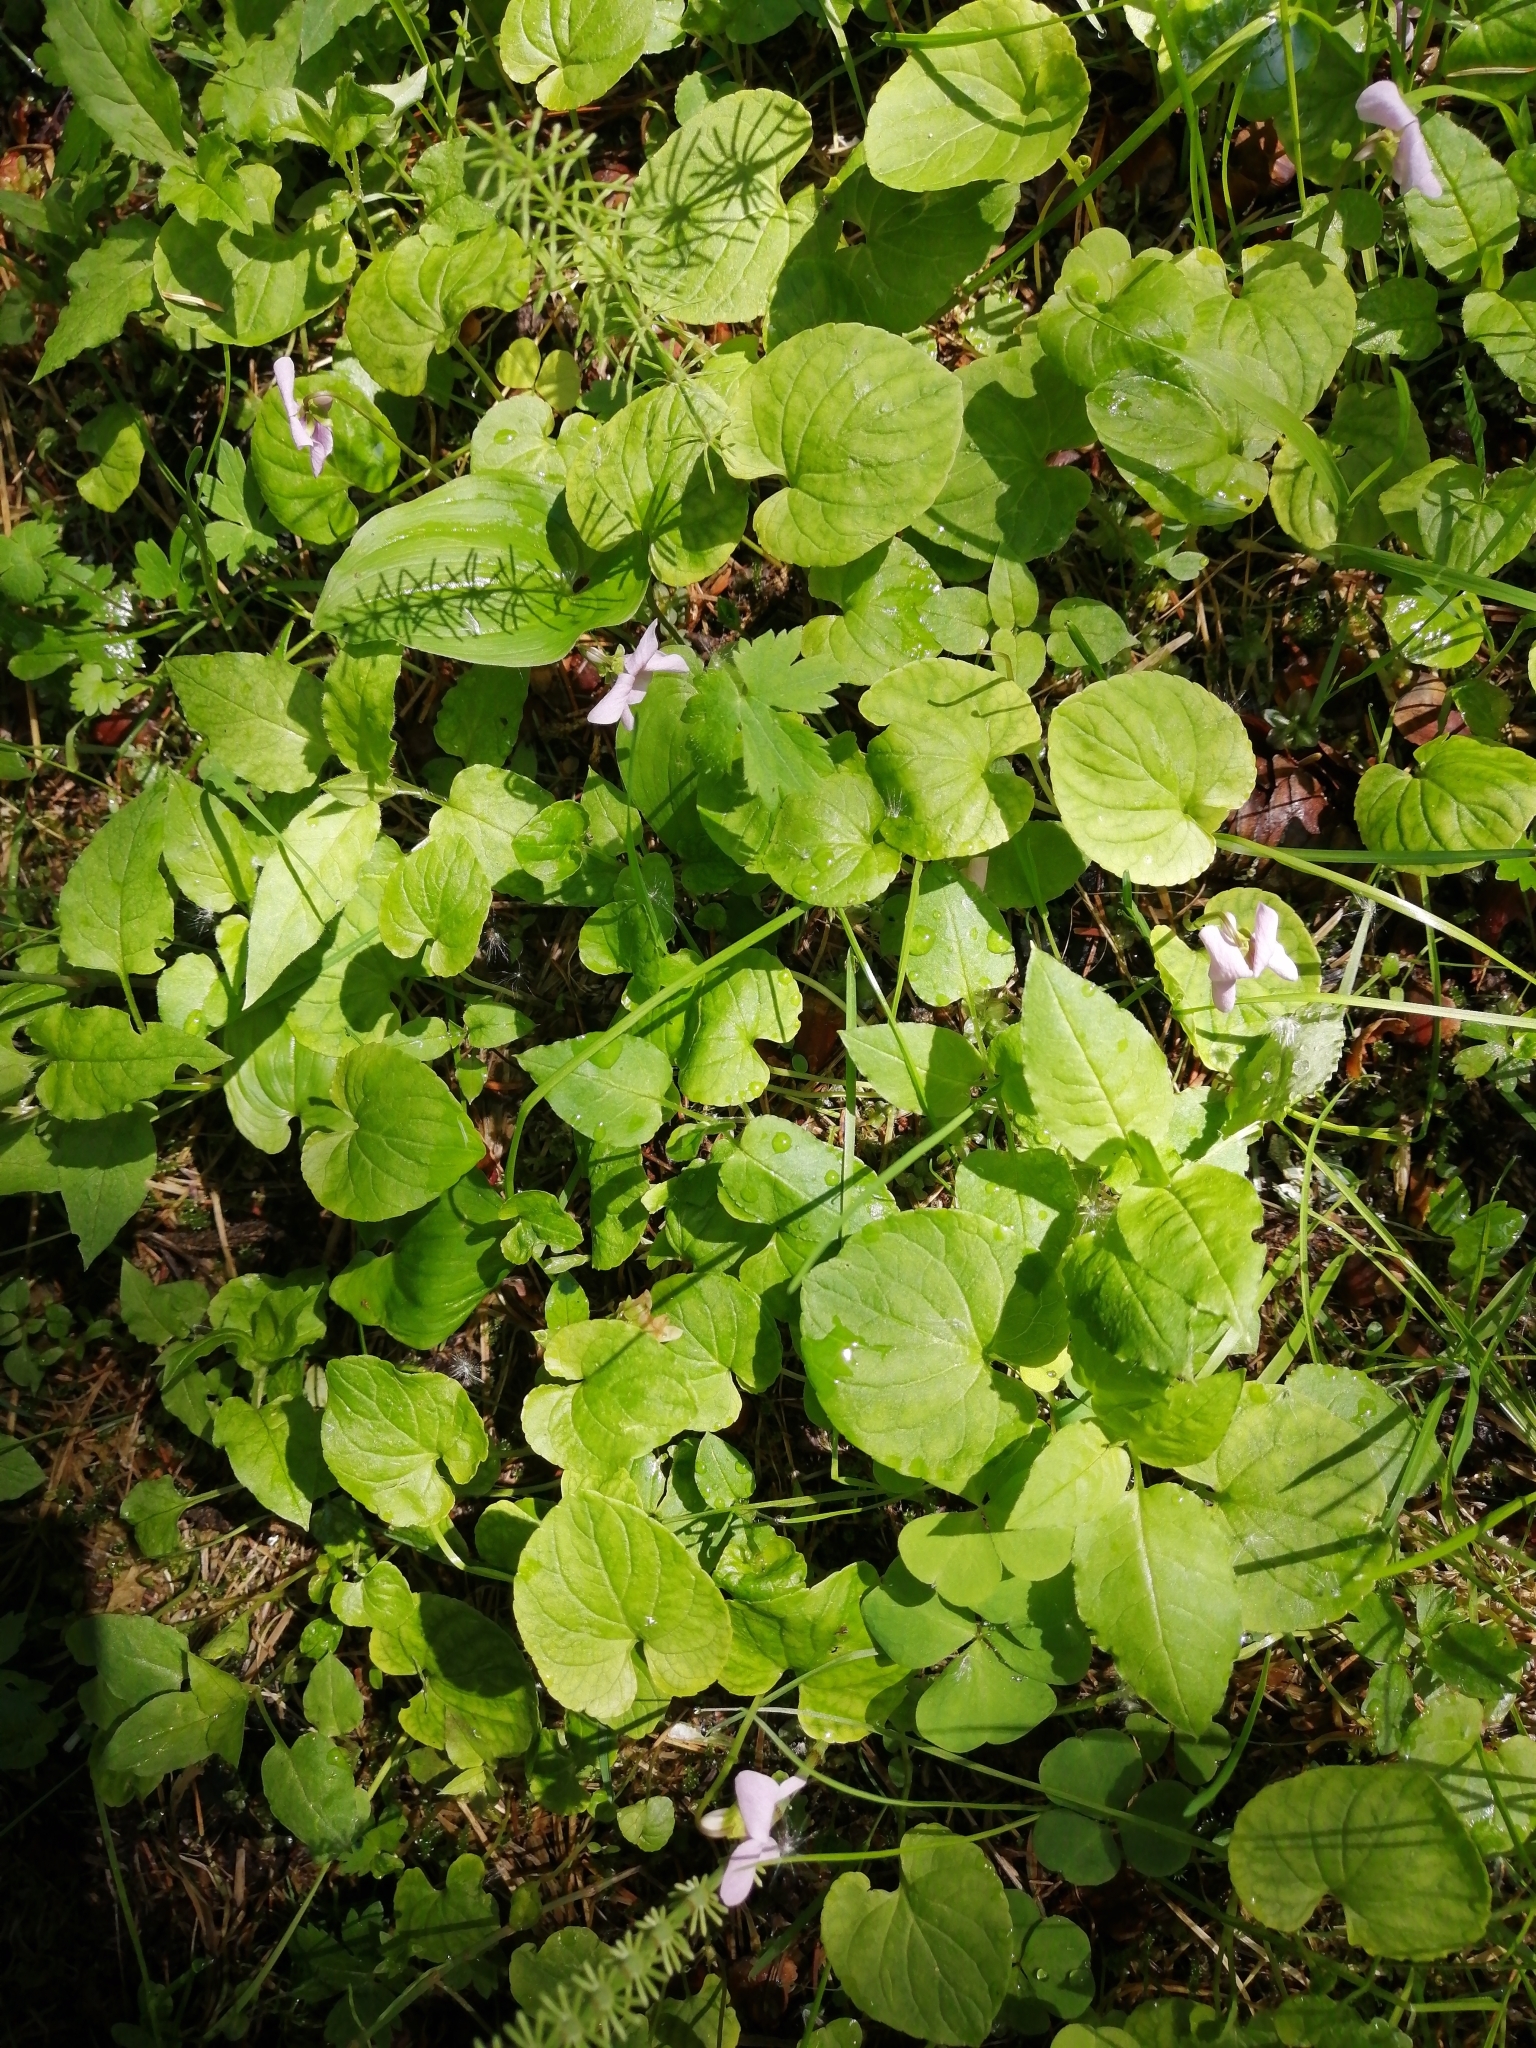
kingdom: Plantae
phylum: Tracheophyta
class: Magnoliopsida
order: Malpighiales
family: Violaceae
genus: Viola
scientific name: Viola epipsila
